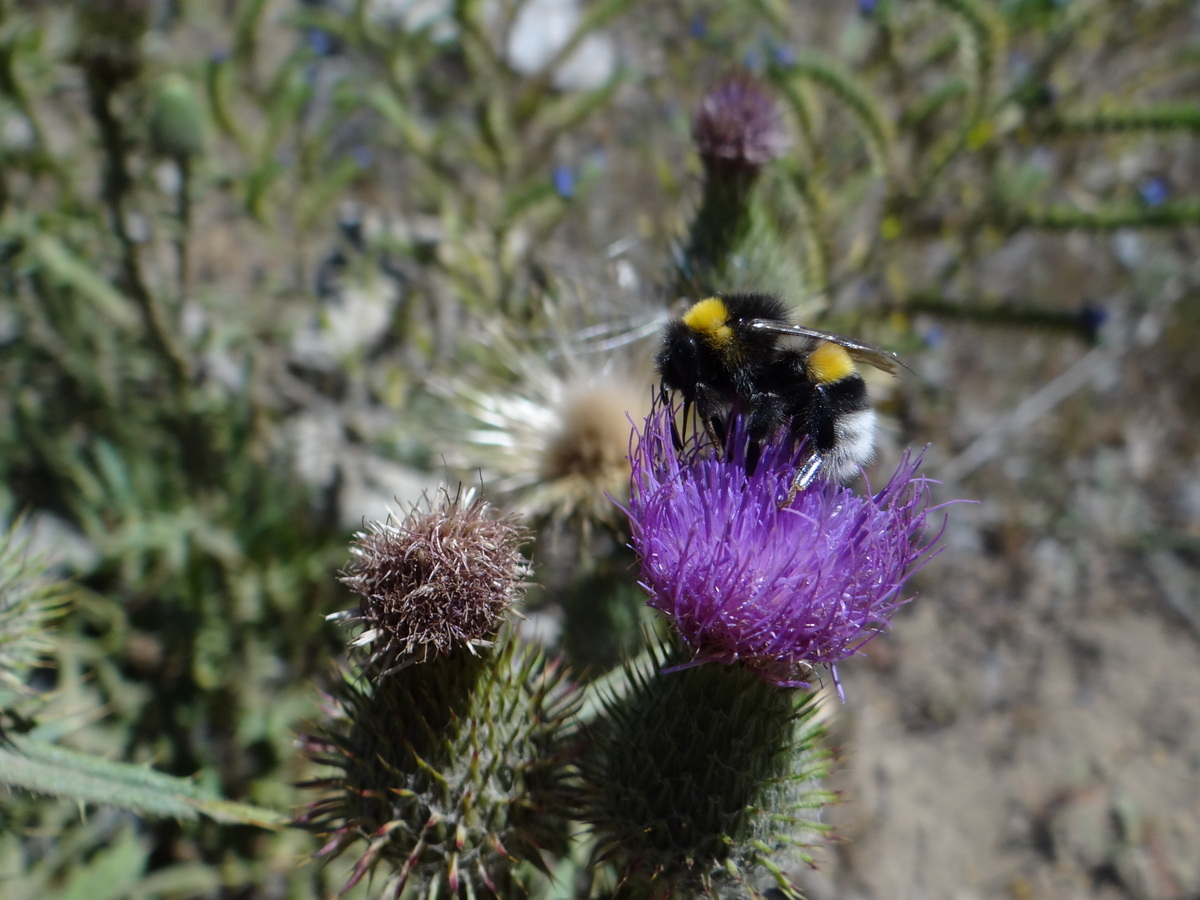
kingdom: Animalia
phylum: Arthropoda
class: Insecta
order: Hymenoptera
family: Apidae
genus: Bombus
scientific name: Bombus terrestris
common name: Buff-tailed bumblebee
